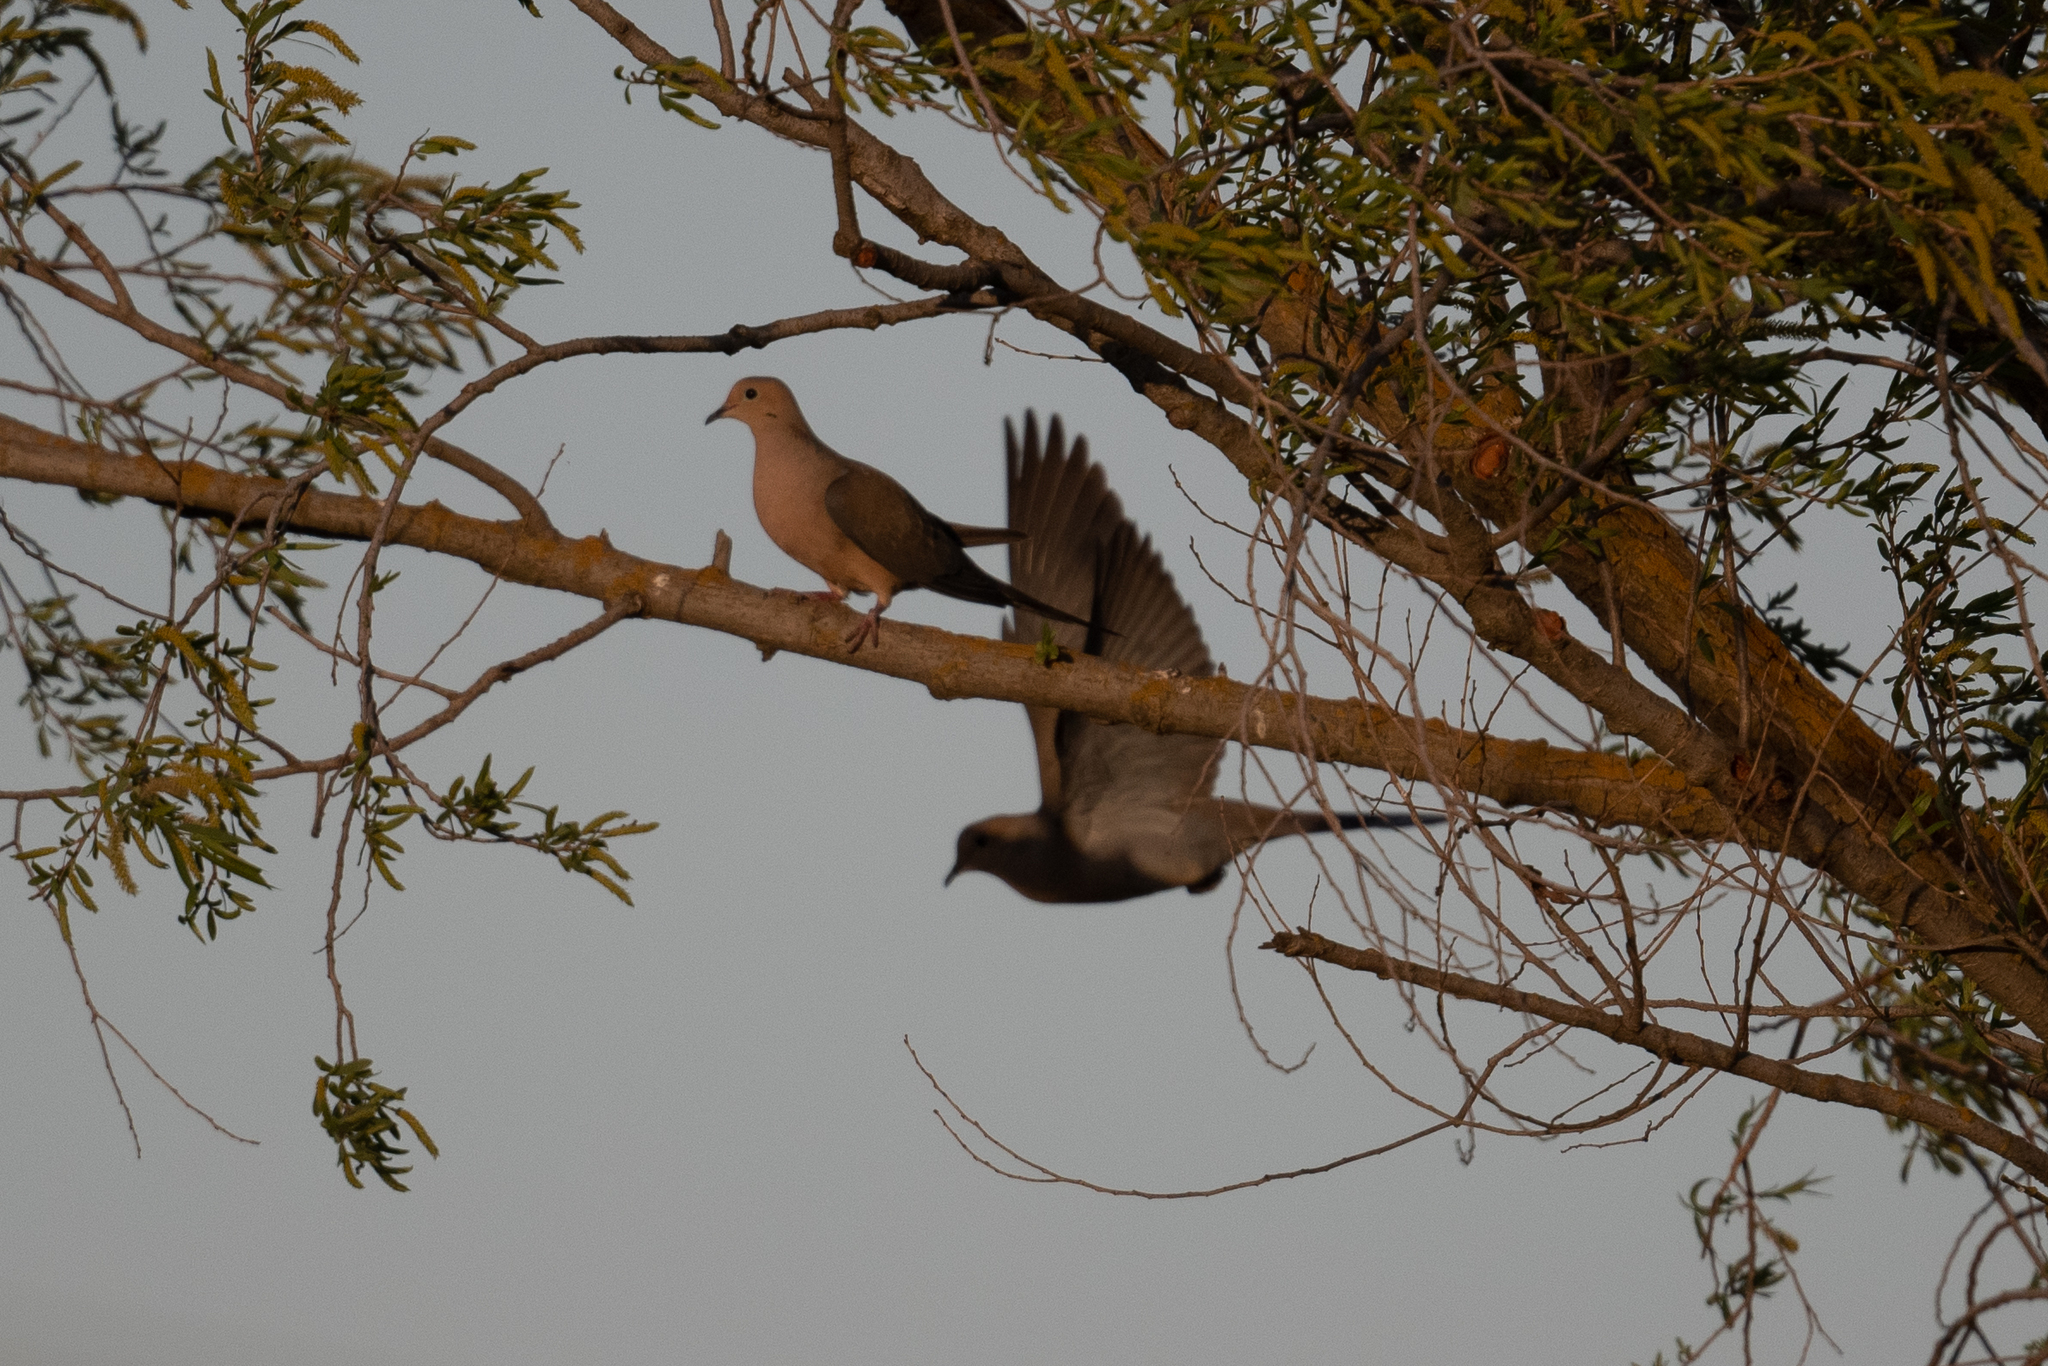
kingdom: Animalia
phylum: Chordata
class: Aves
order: Columbiformes
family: Columbidae
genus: Zenaida
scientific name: Zenaida macroura
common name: Mourning dove
